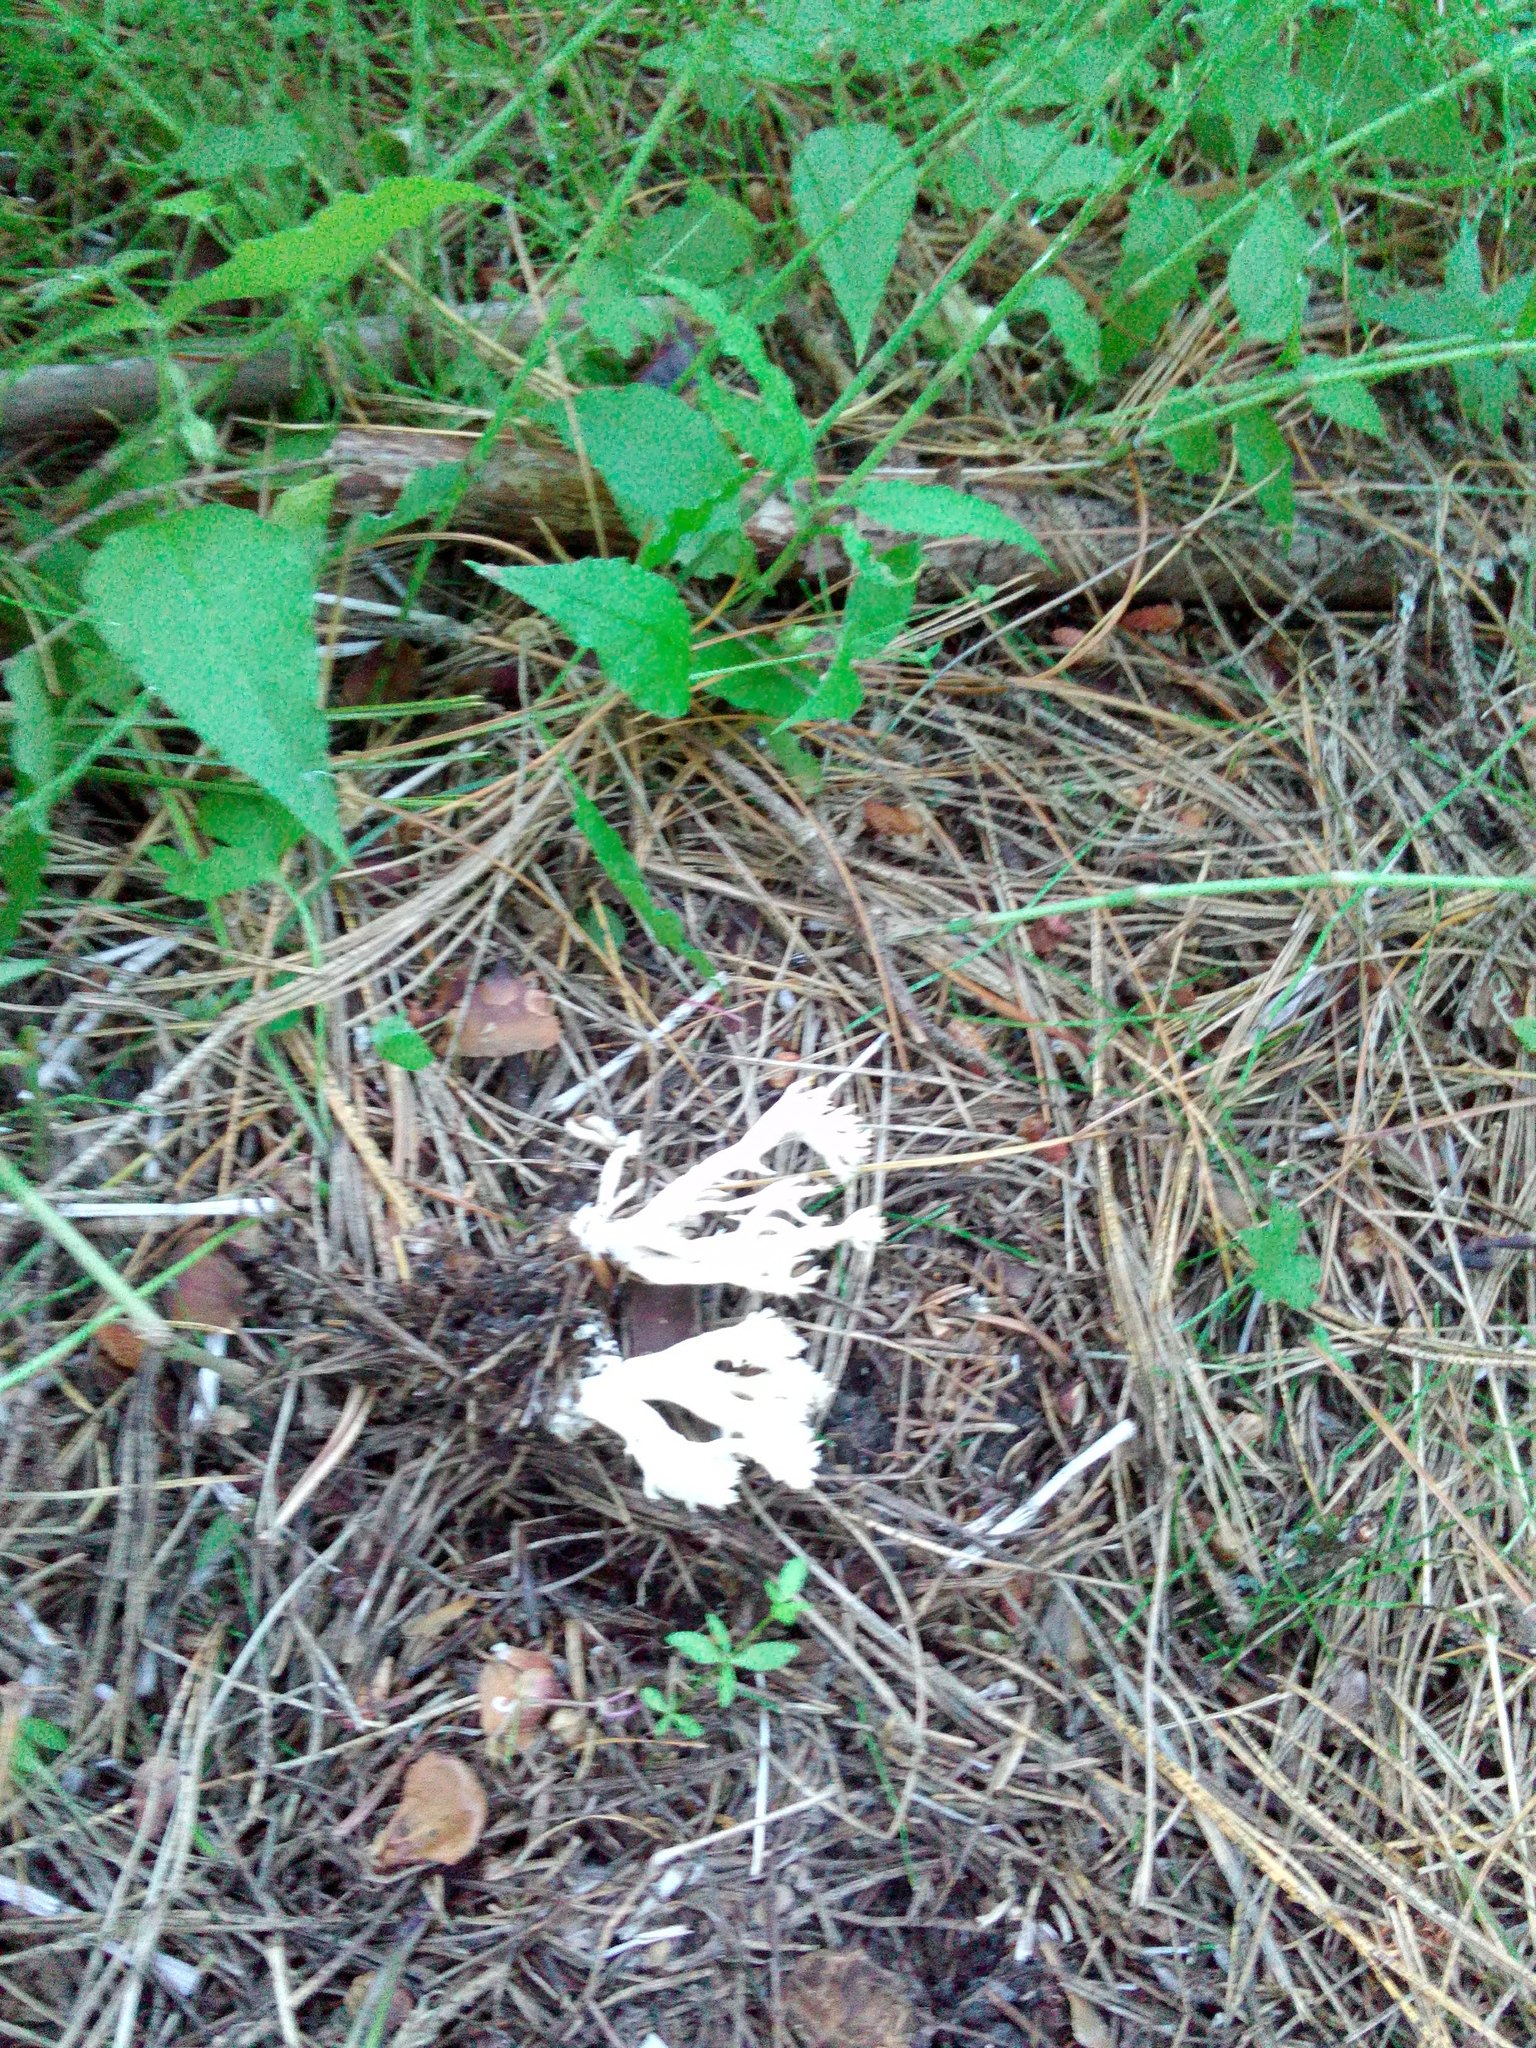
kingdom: Fungi
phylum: Basidiomycota
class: Agaricomycetes
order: Cantharellales
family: Hydnaceae
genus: Clavulina
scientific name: Clavulina coralloides
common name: Crested coral
